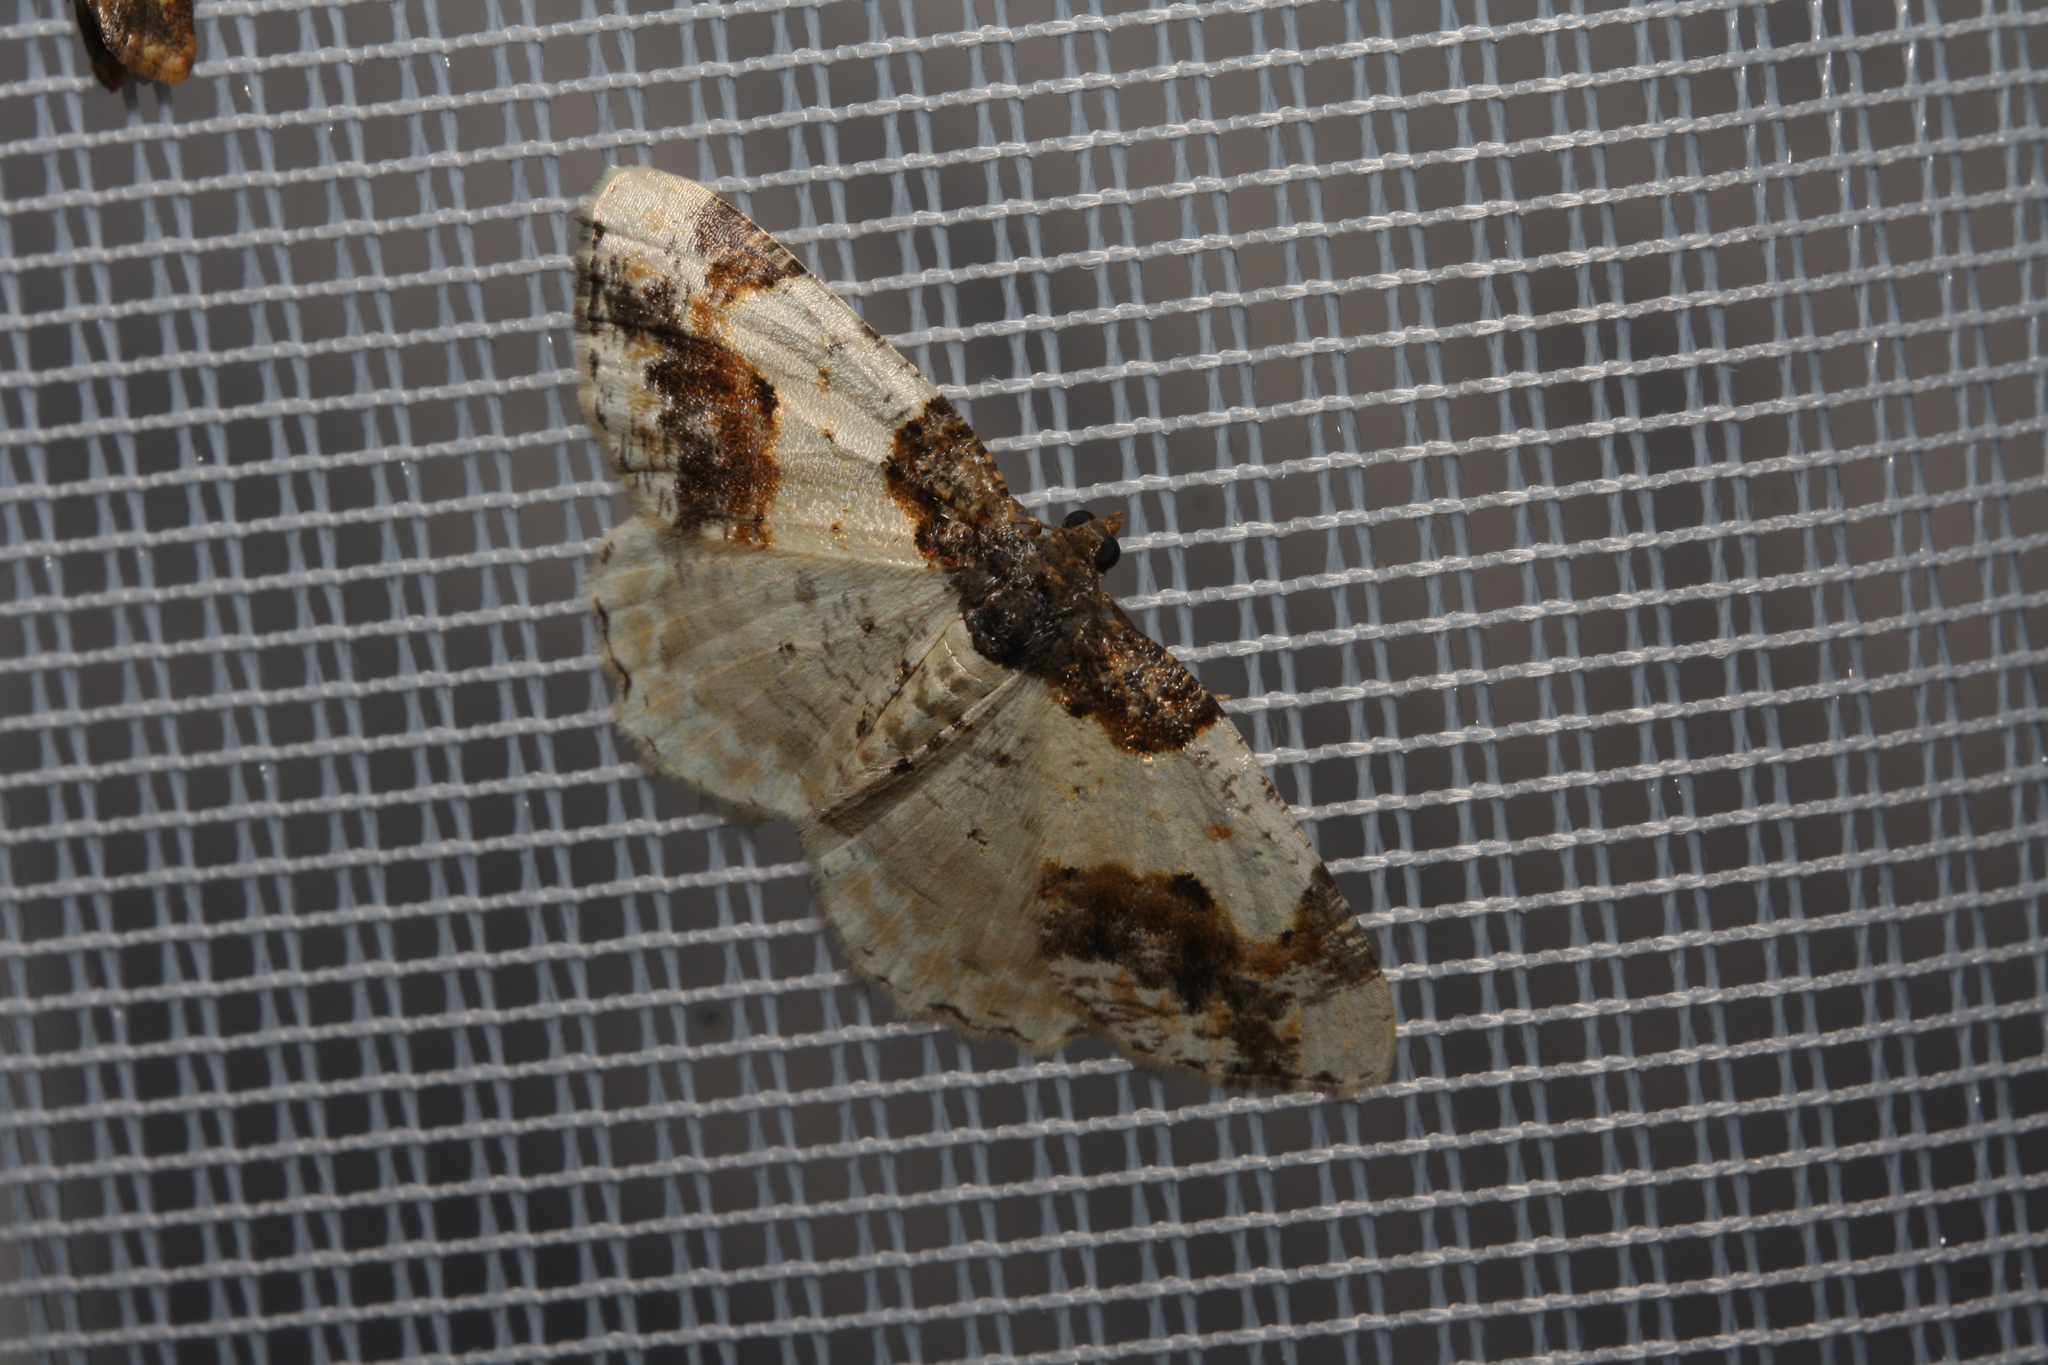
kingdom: Animalia
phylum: Arthropoda
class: Insecta
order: Lepidoptera
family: Geometridae
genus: Ligdia
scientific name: Ligdia adustata
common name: Scorched carpet
